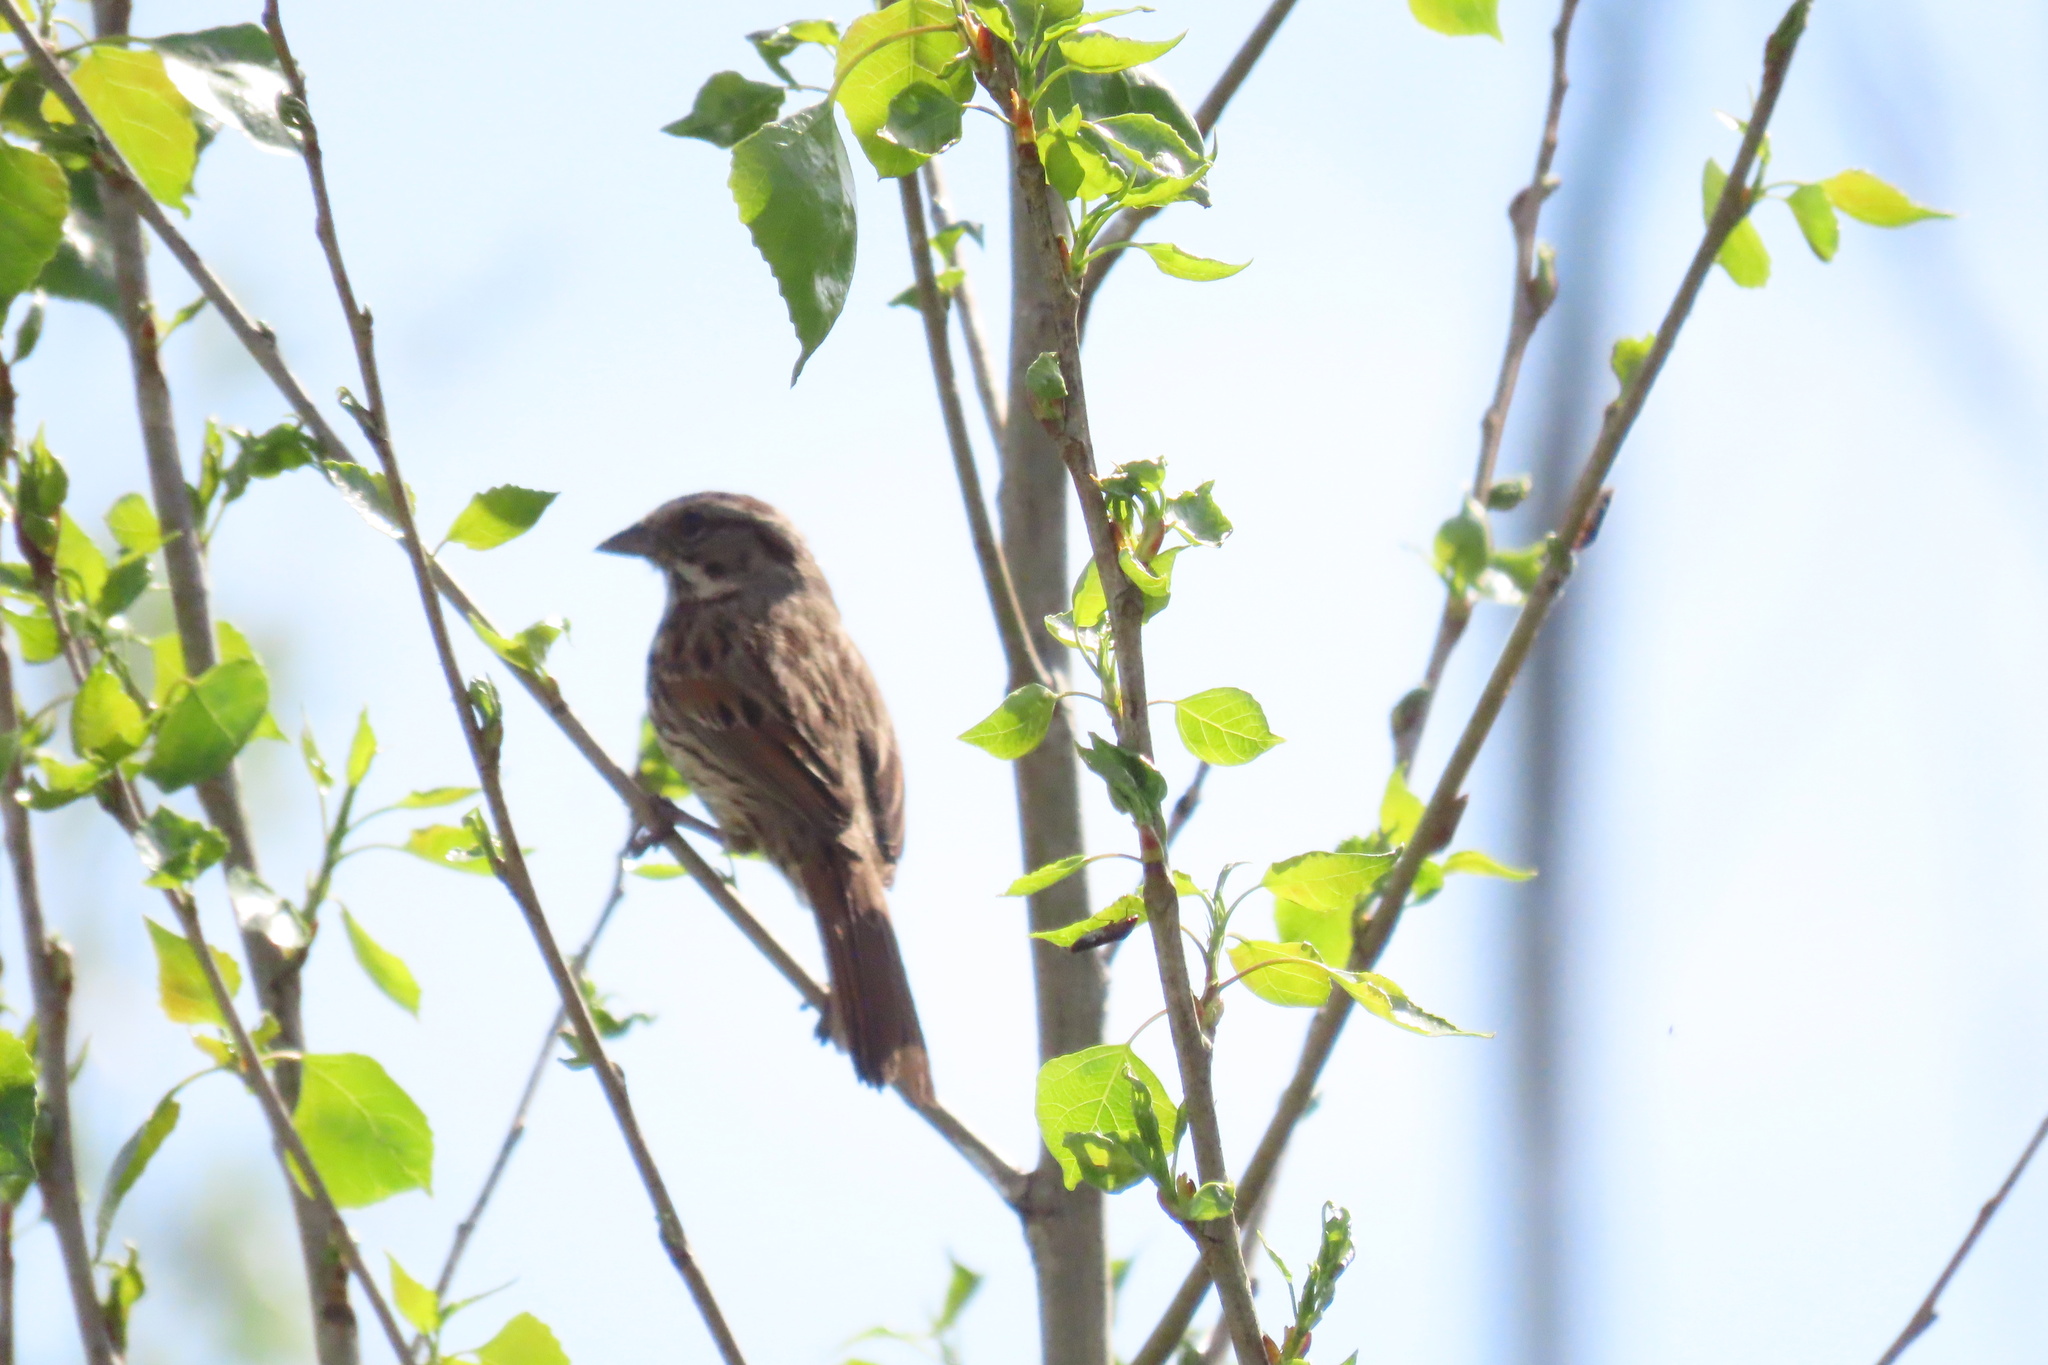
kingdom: Animalia
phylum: Chordata
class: Aves
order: Passeriformes
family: Passerellidae
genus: Melospiza
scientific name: Melospiza melodia
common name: Song sparrow
